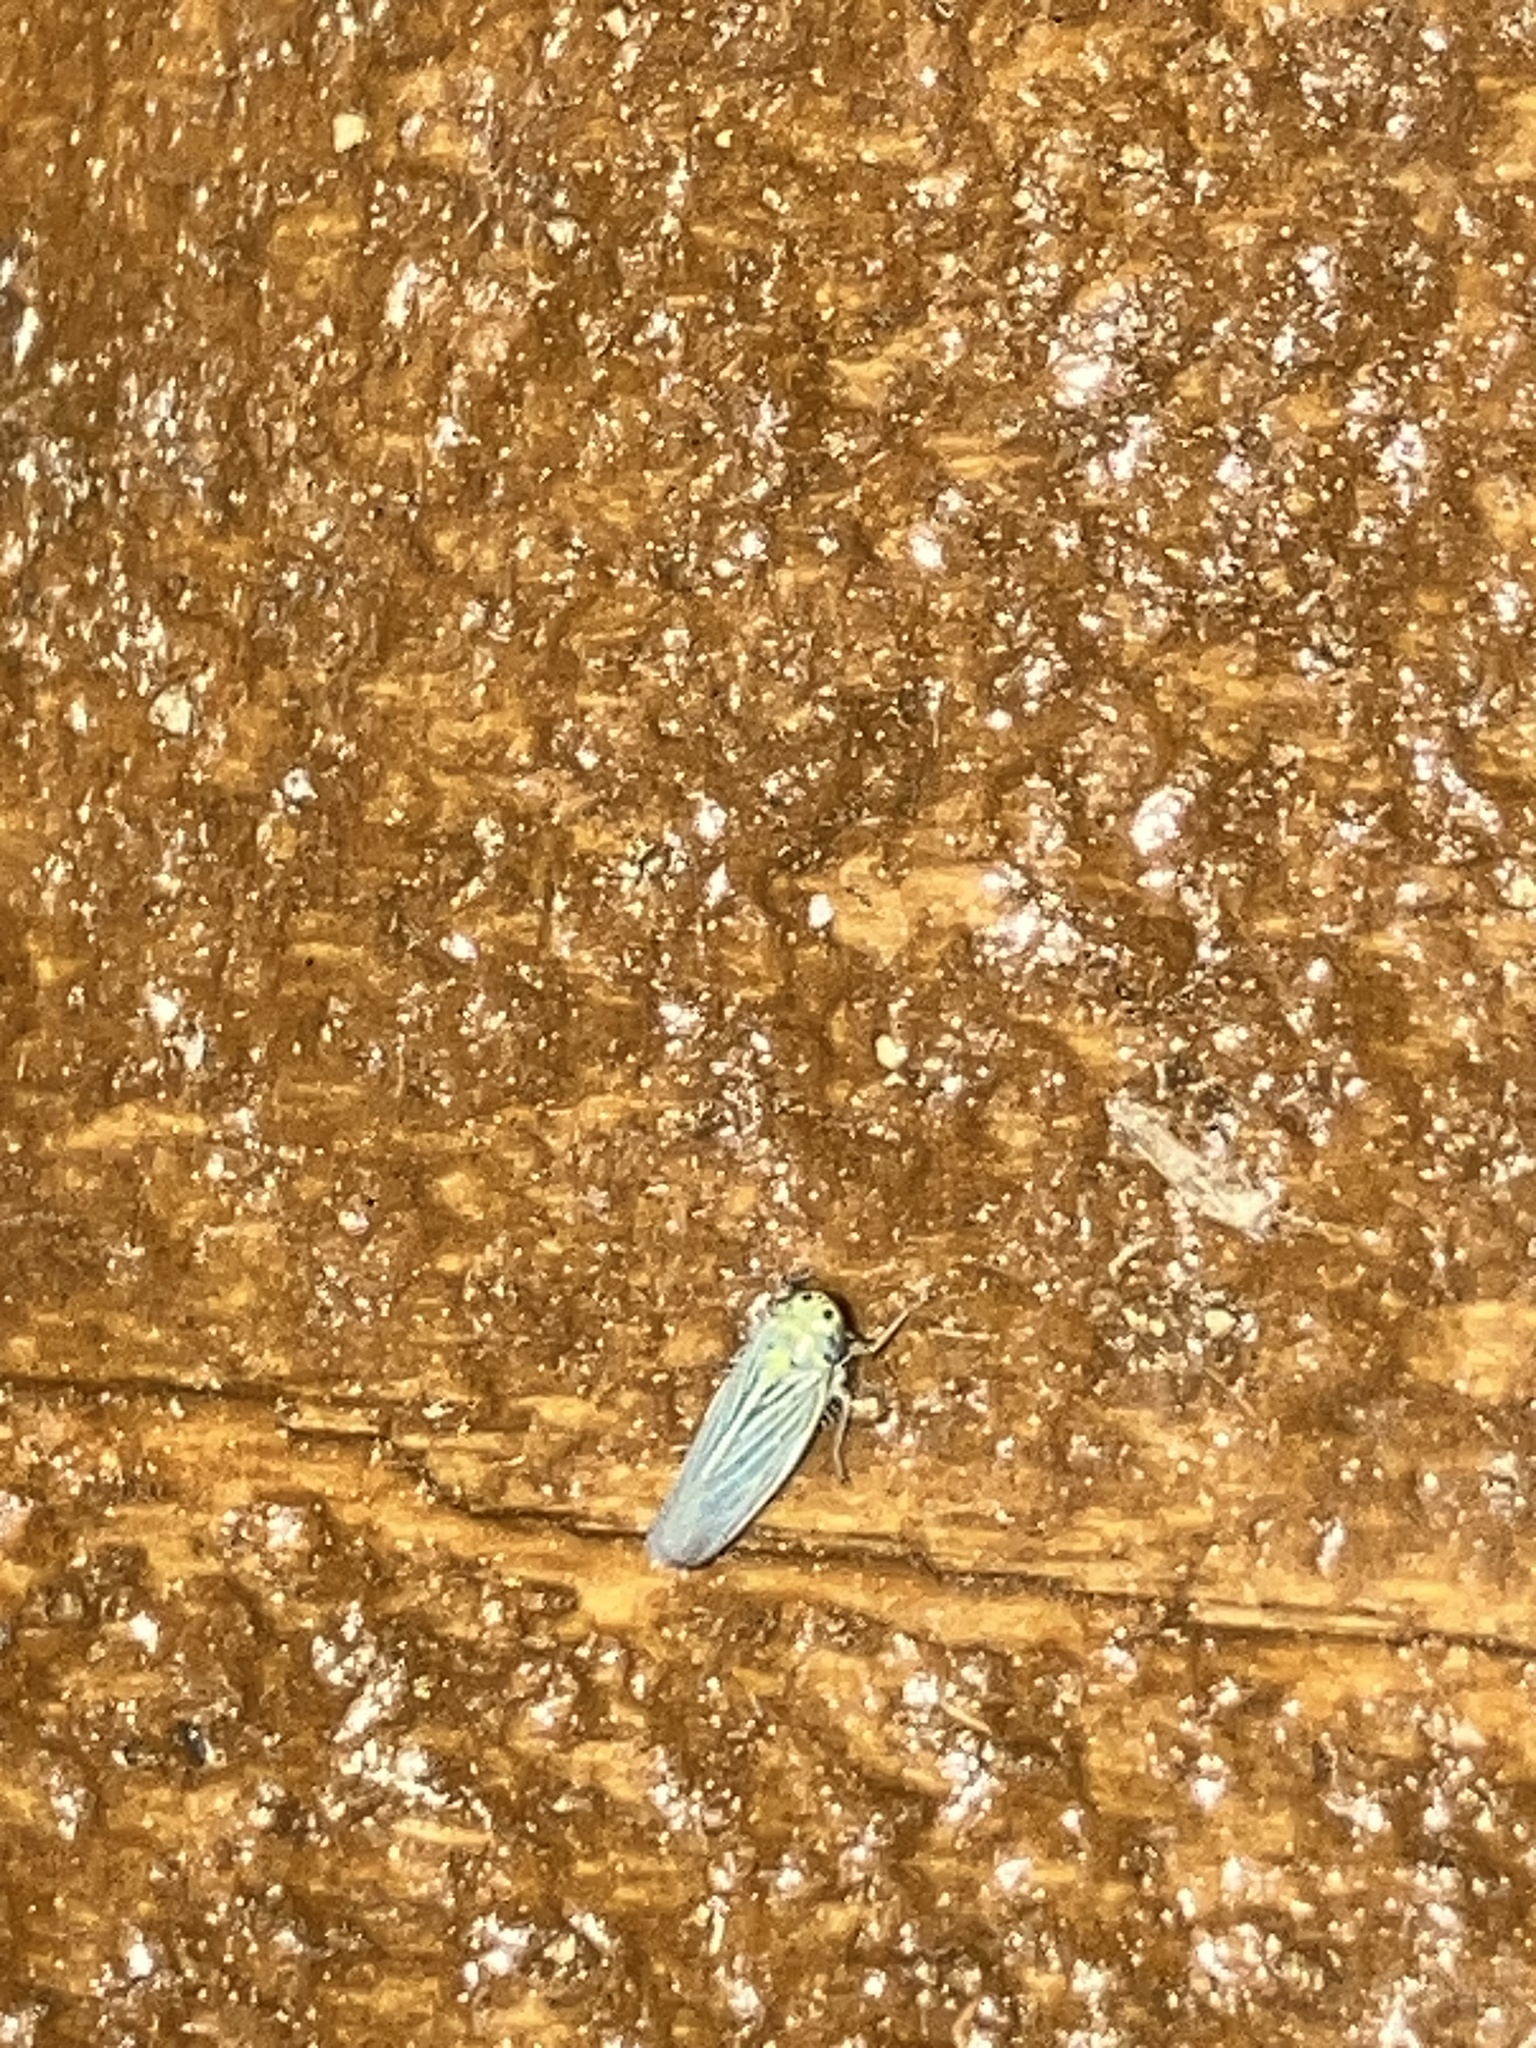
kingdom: Animalia
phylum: Arthropoda
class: Insecta
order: Hemiptera
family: Cicadellidae
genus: Graminella
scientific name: Graminella cognita
